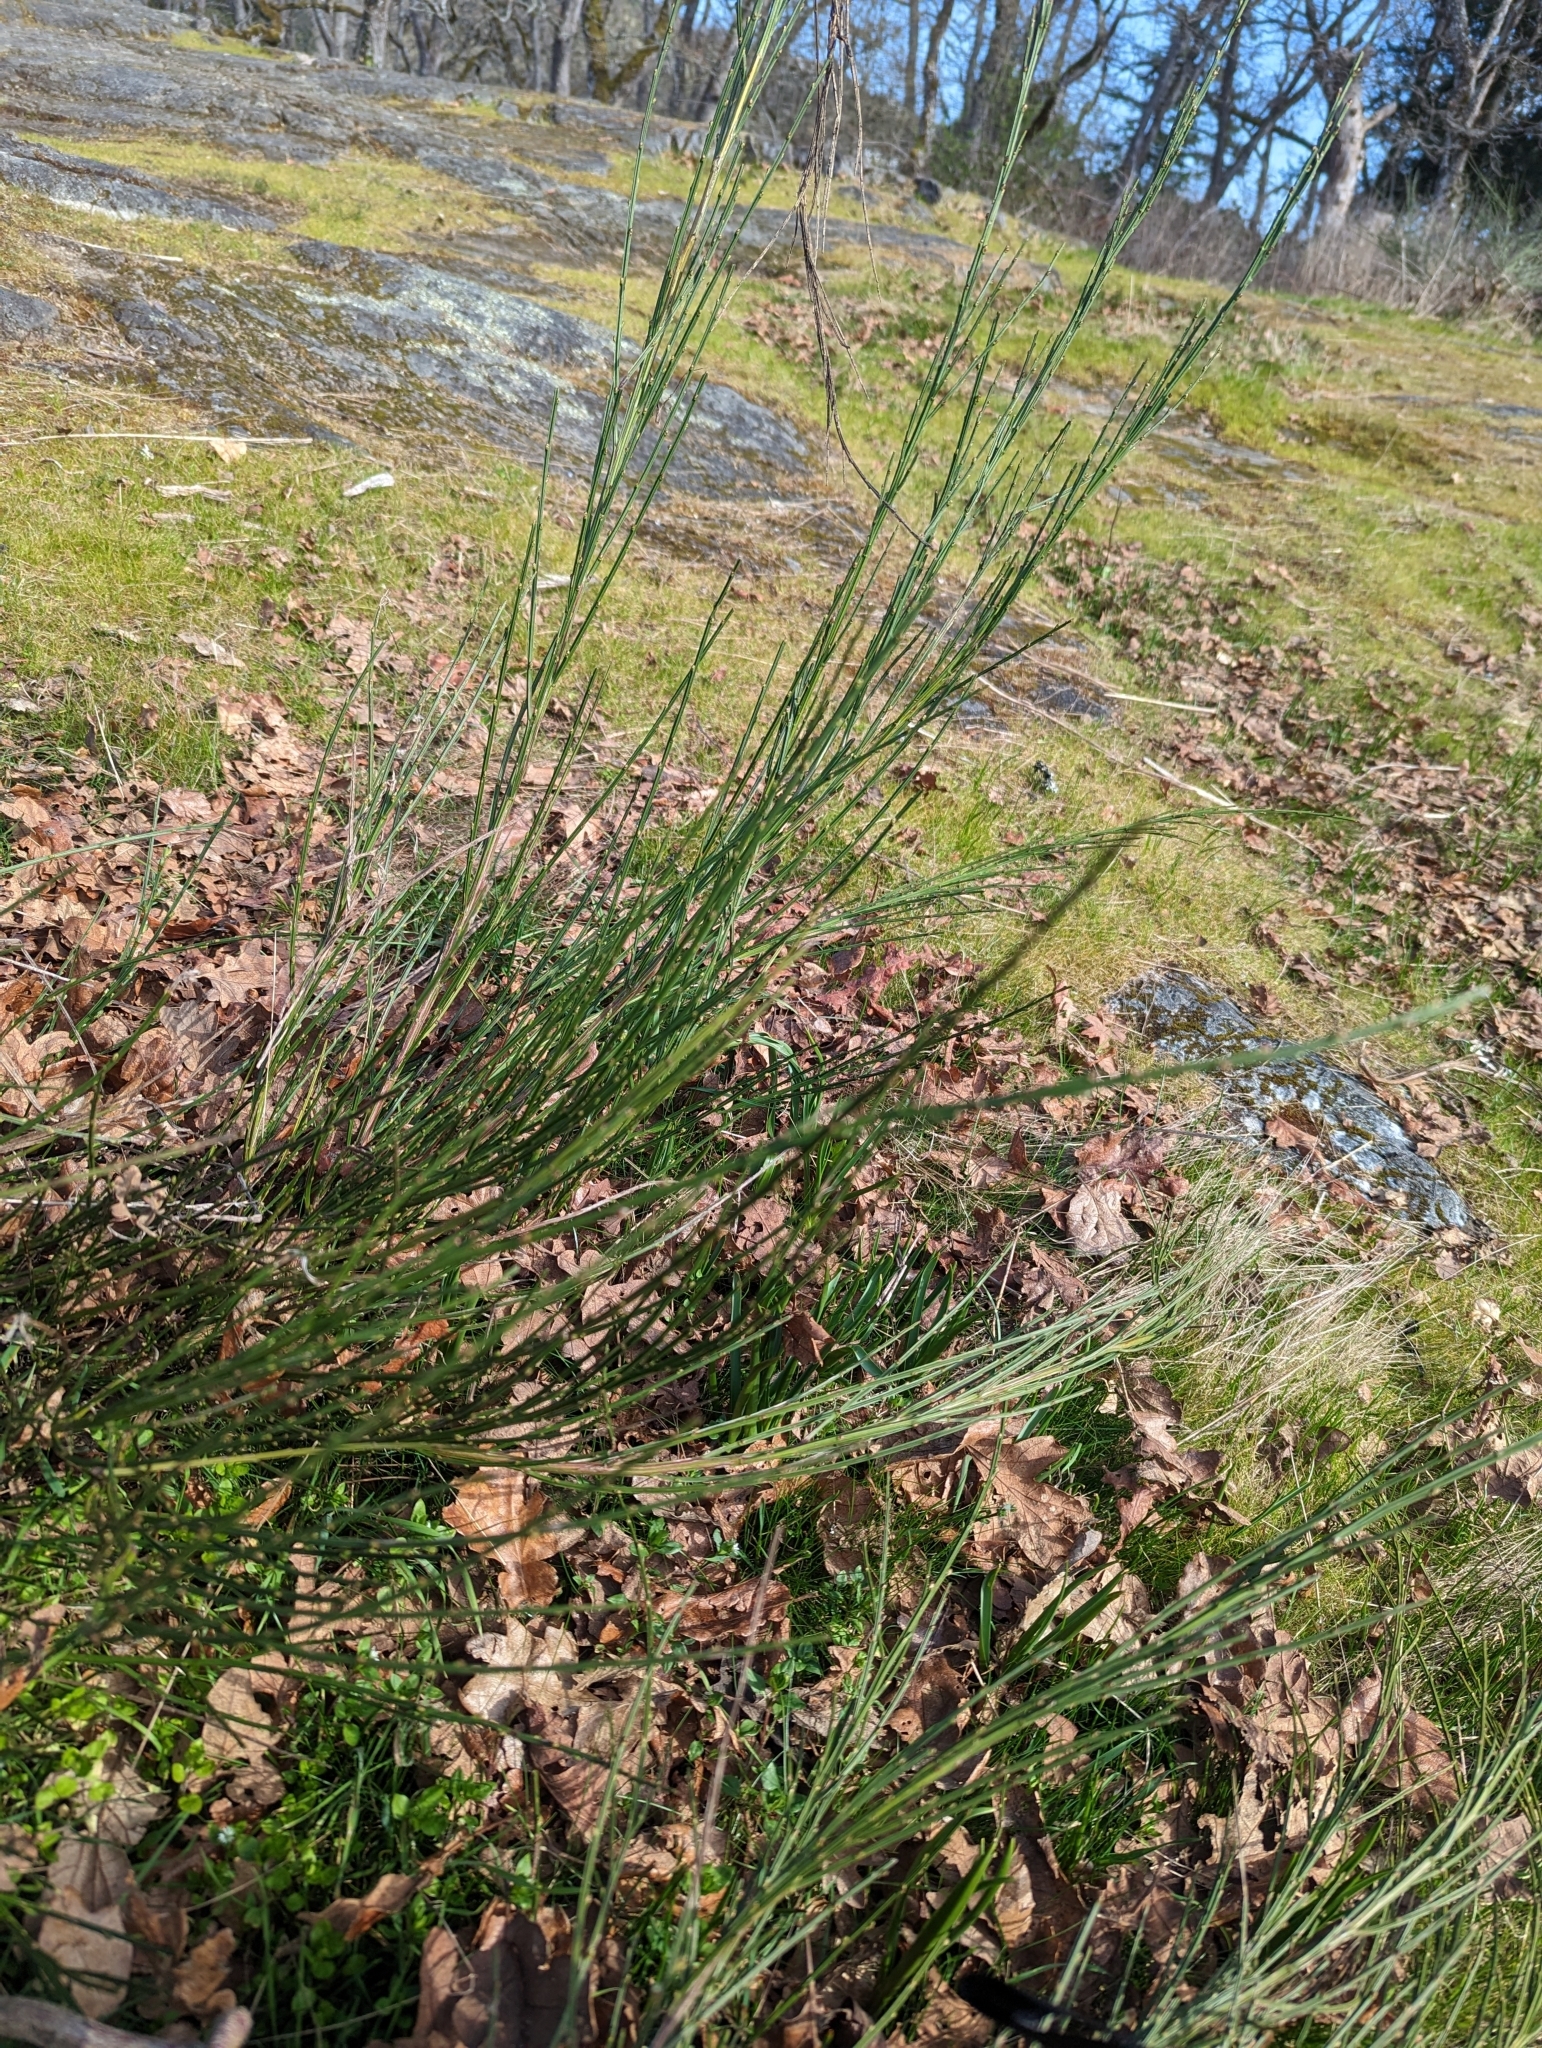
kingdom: Plantae
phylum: Tracheophyta
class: Magnoliopsida
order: Fabales
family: Fabaceae
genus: Cytisus
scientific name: Cytisus scoparius
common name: Scotch broom
